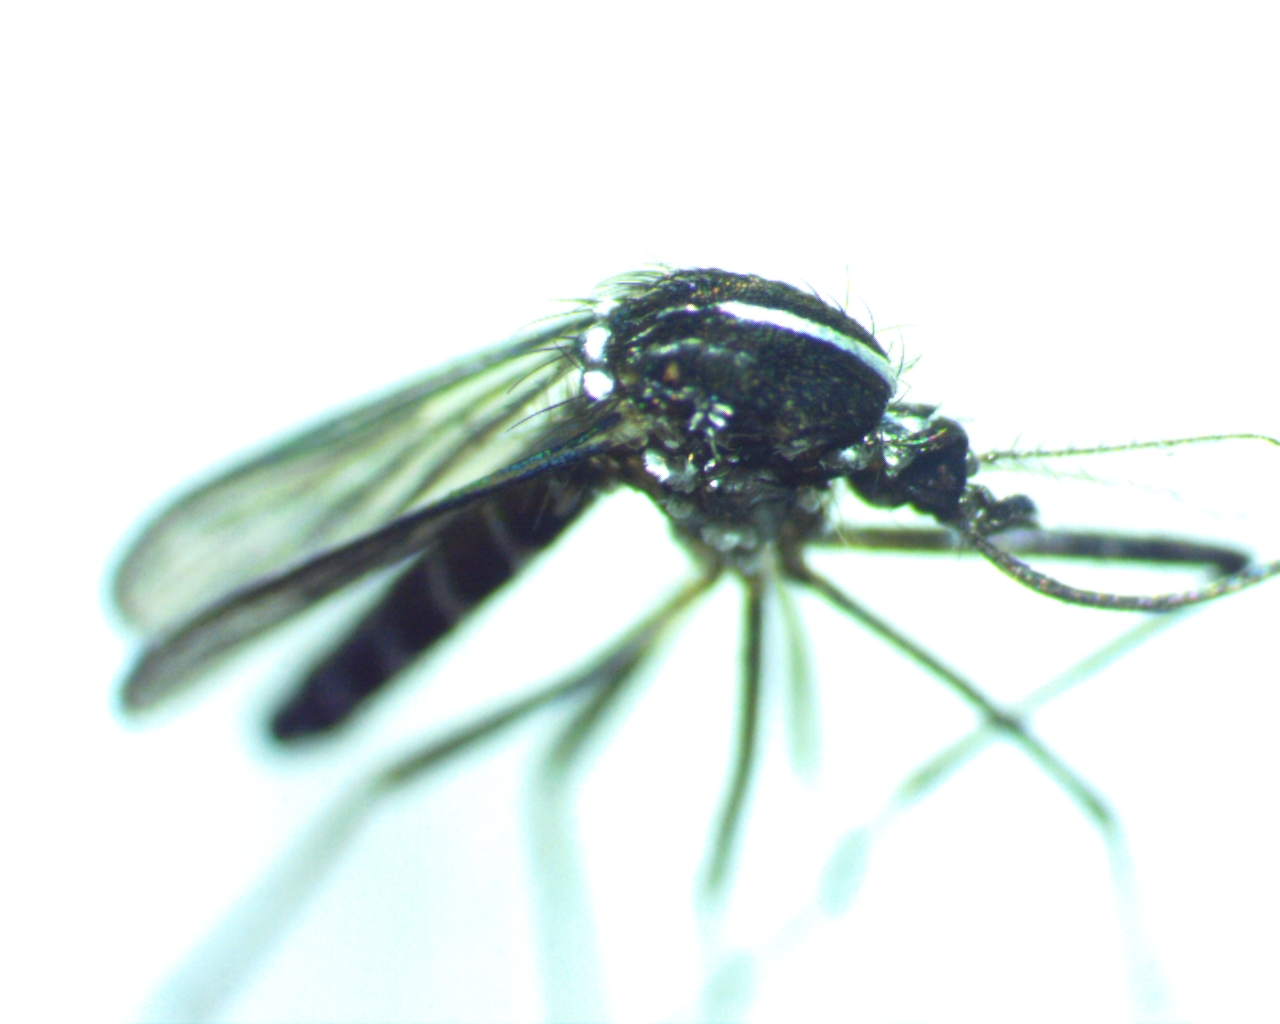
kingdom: Animalia
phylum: Arthropoda
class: Insecta
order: Diptera
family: Culicidae
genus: Aedes
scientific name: Aedes albopictus
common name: Tiger mosquito
